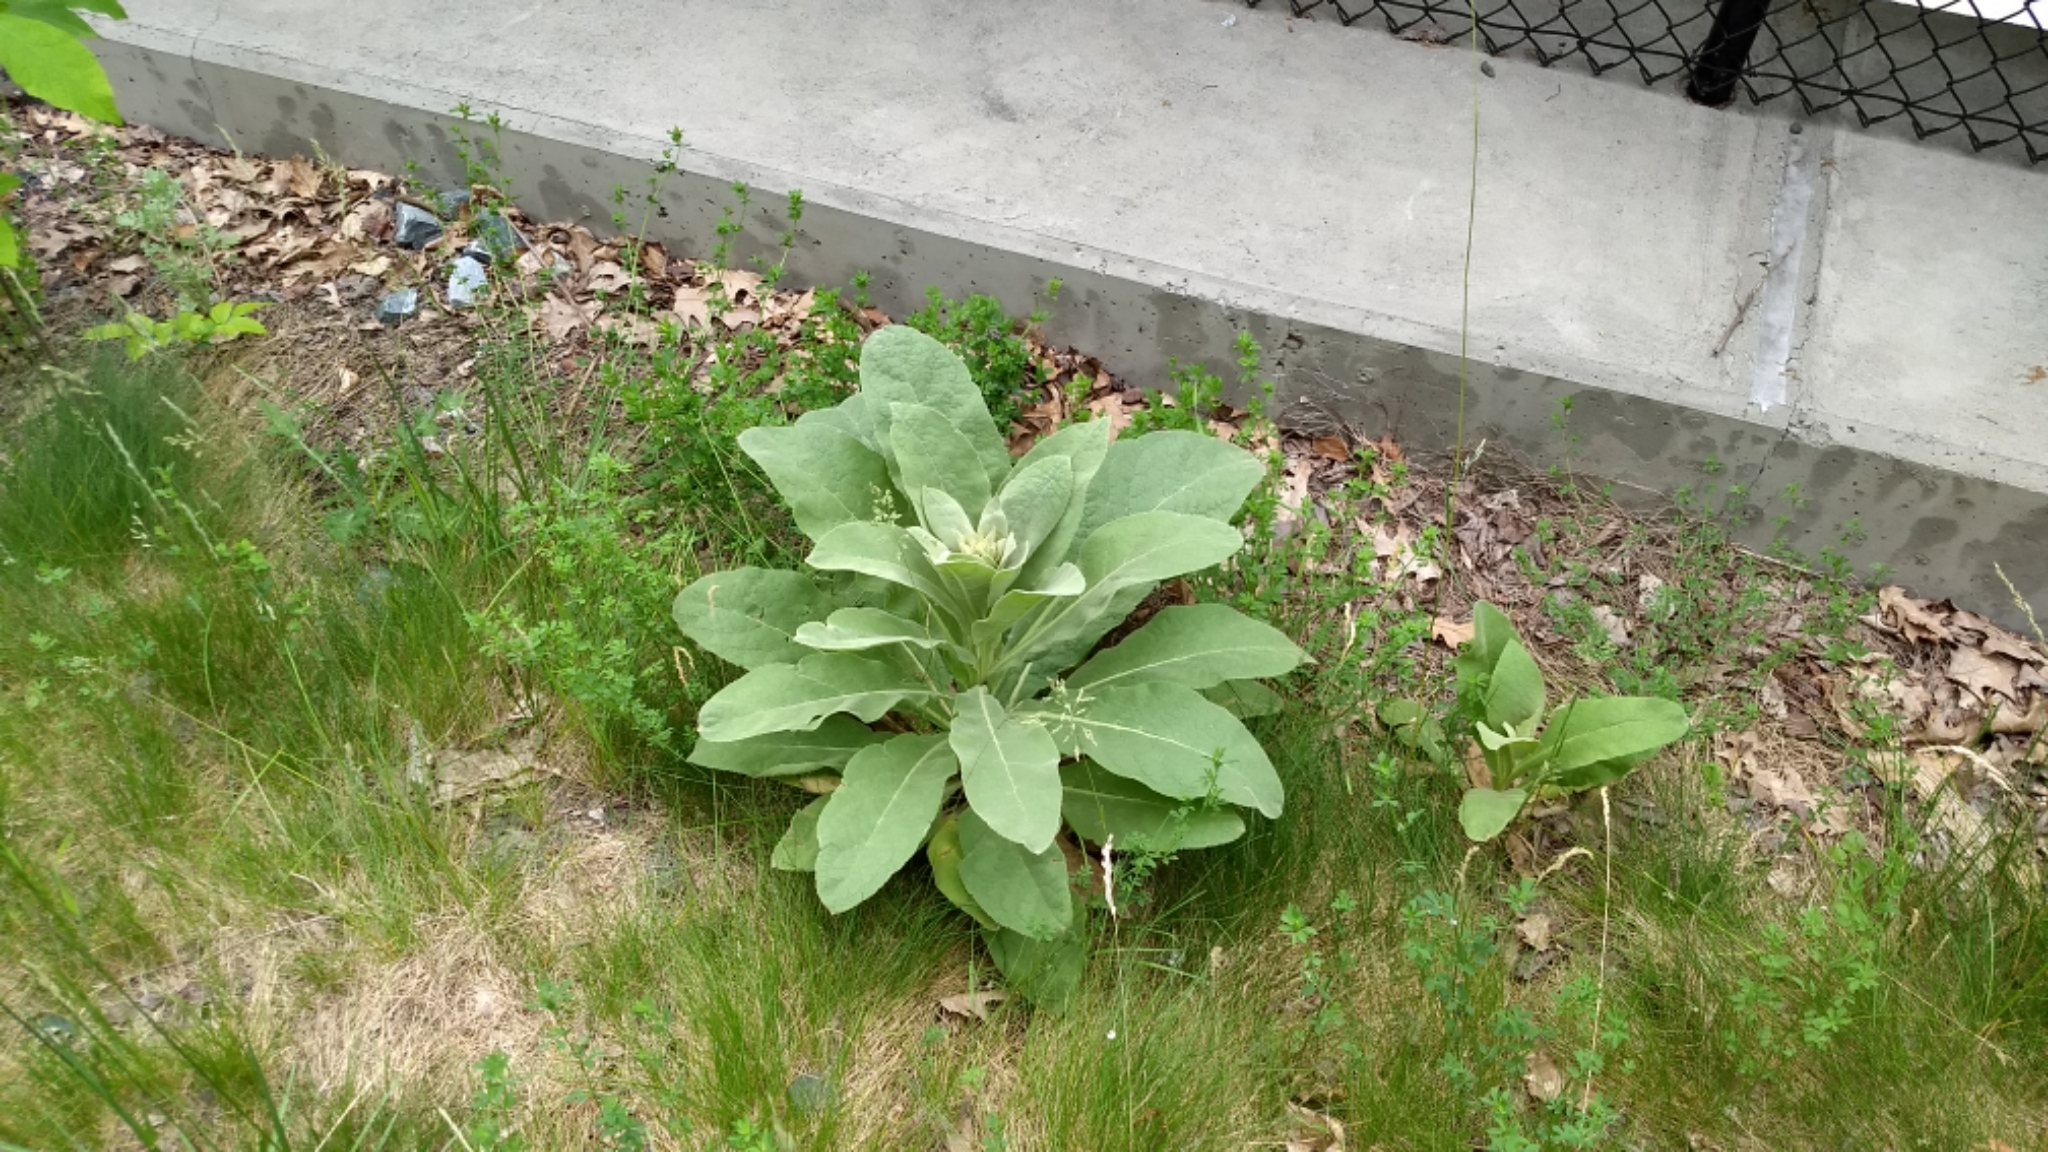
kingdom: Plantae
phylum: Tracheophyta
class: Magnoliopsida
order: Lamiales
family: Scrophulariaceae
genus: Verbascum
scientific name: Verbascum thapsus
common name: Common mullein
